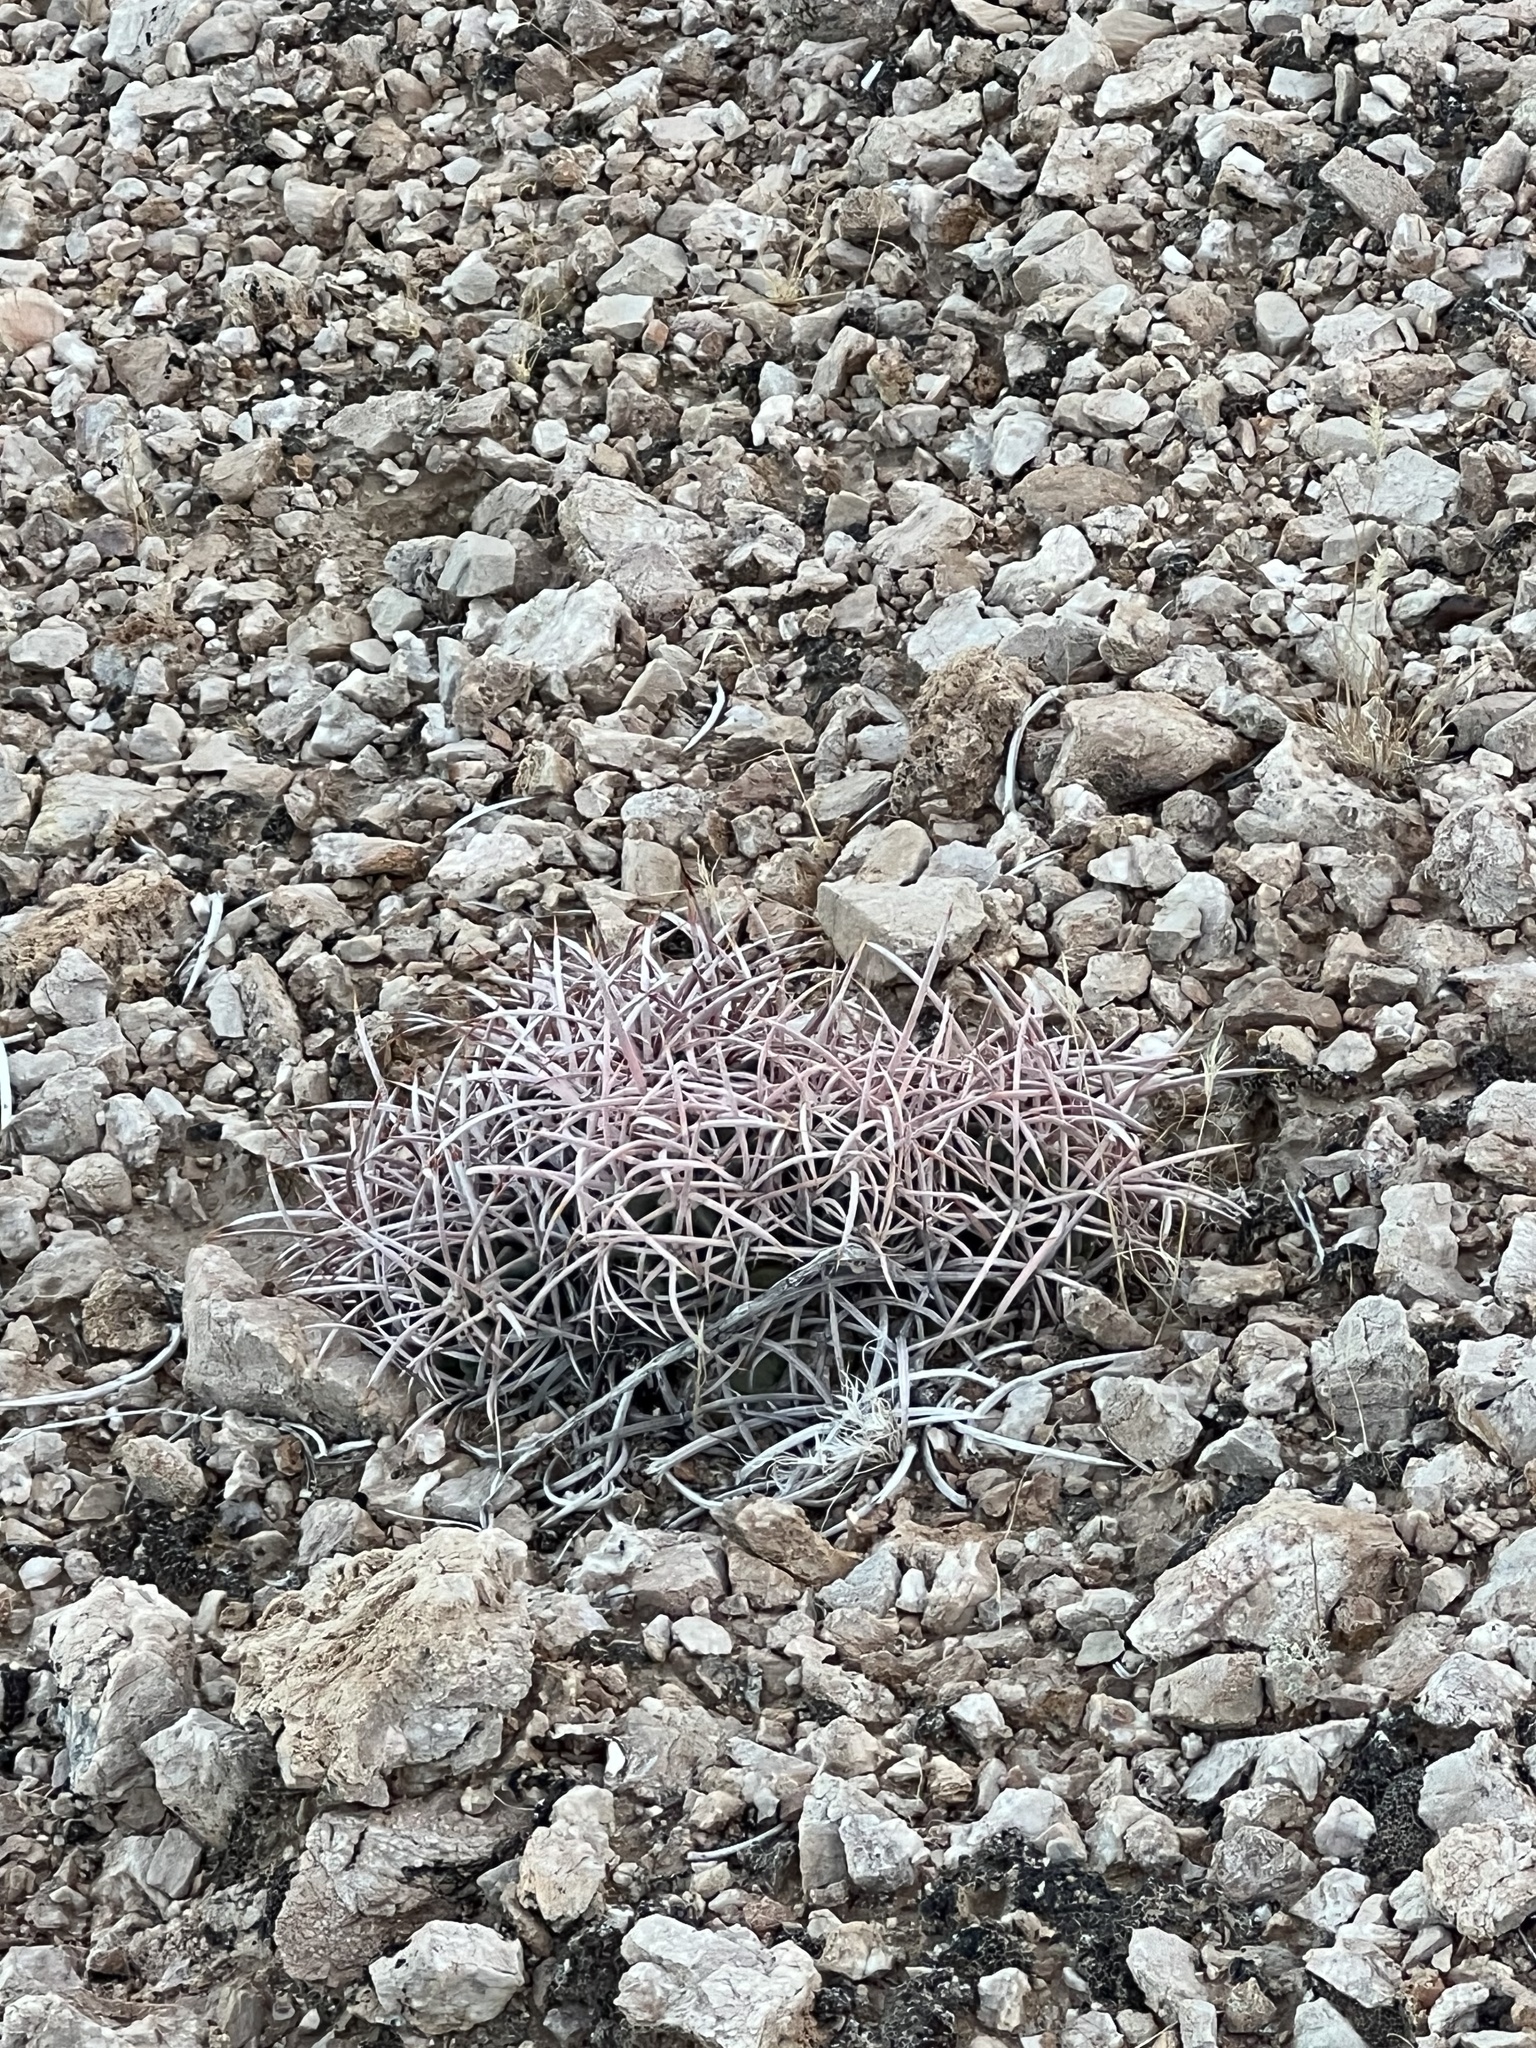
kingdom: Plantae
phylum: Tracheophyta
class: Magnoliopsida
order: Caryophyllales
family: Cactaceae
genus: Echinocactus
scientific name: Echinocactus polycephalus
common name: Cottontop cactus
